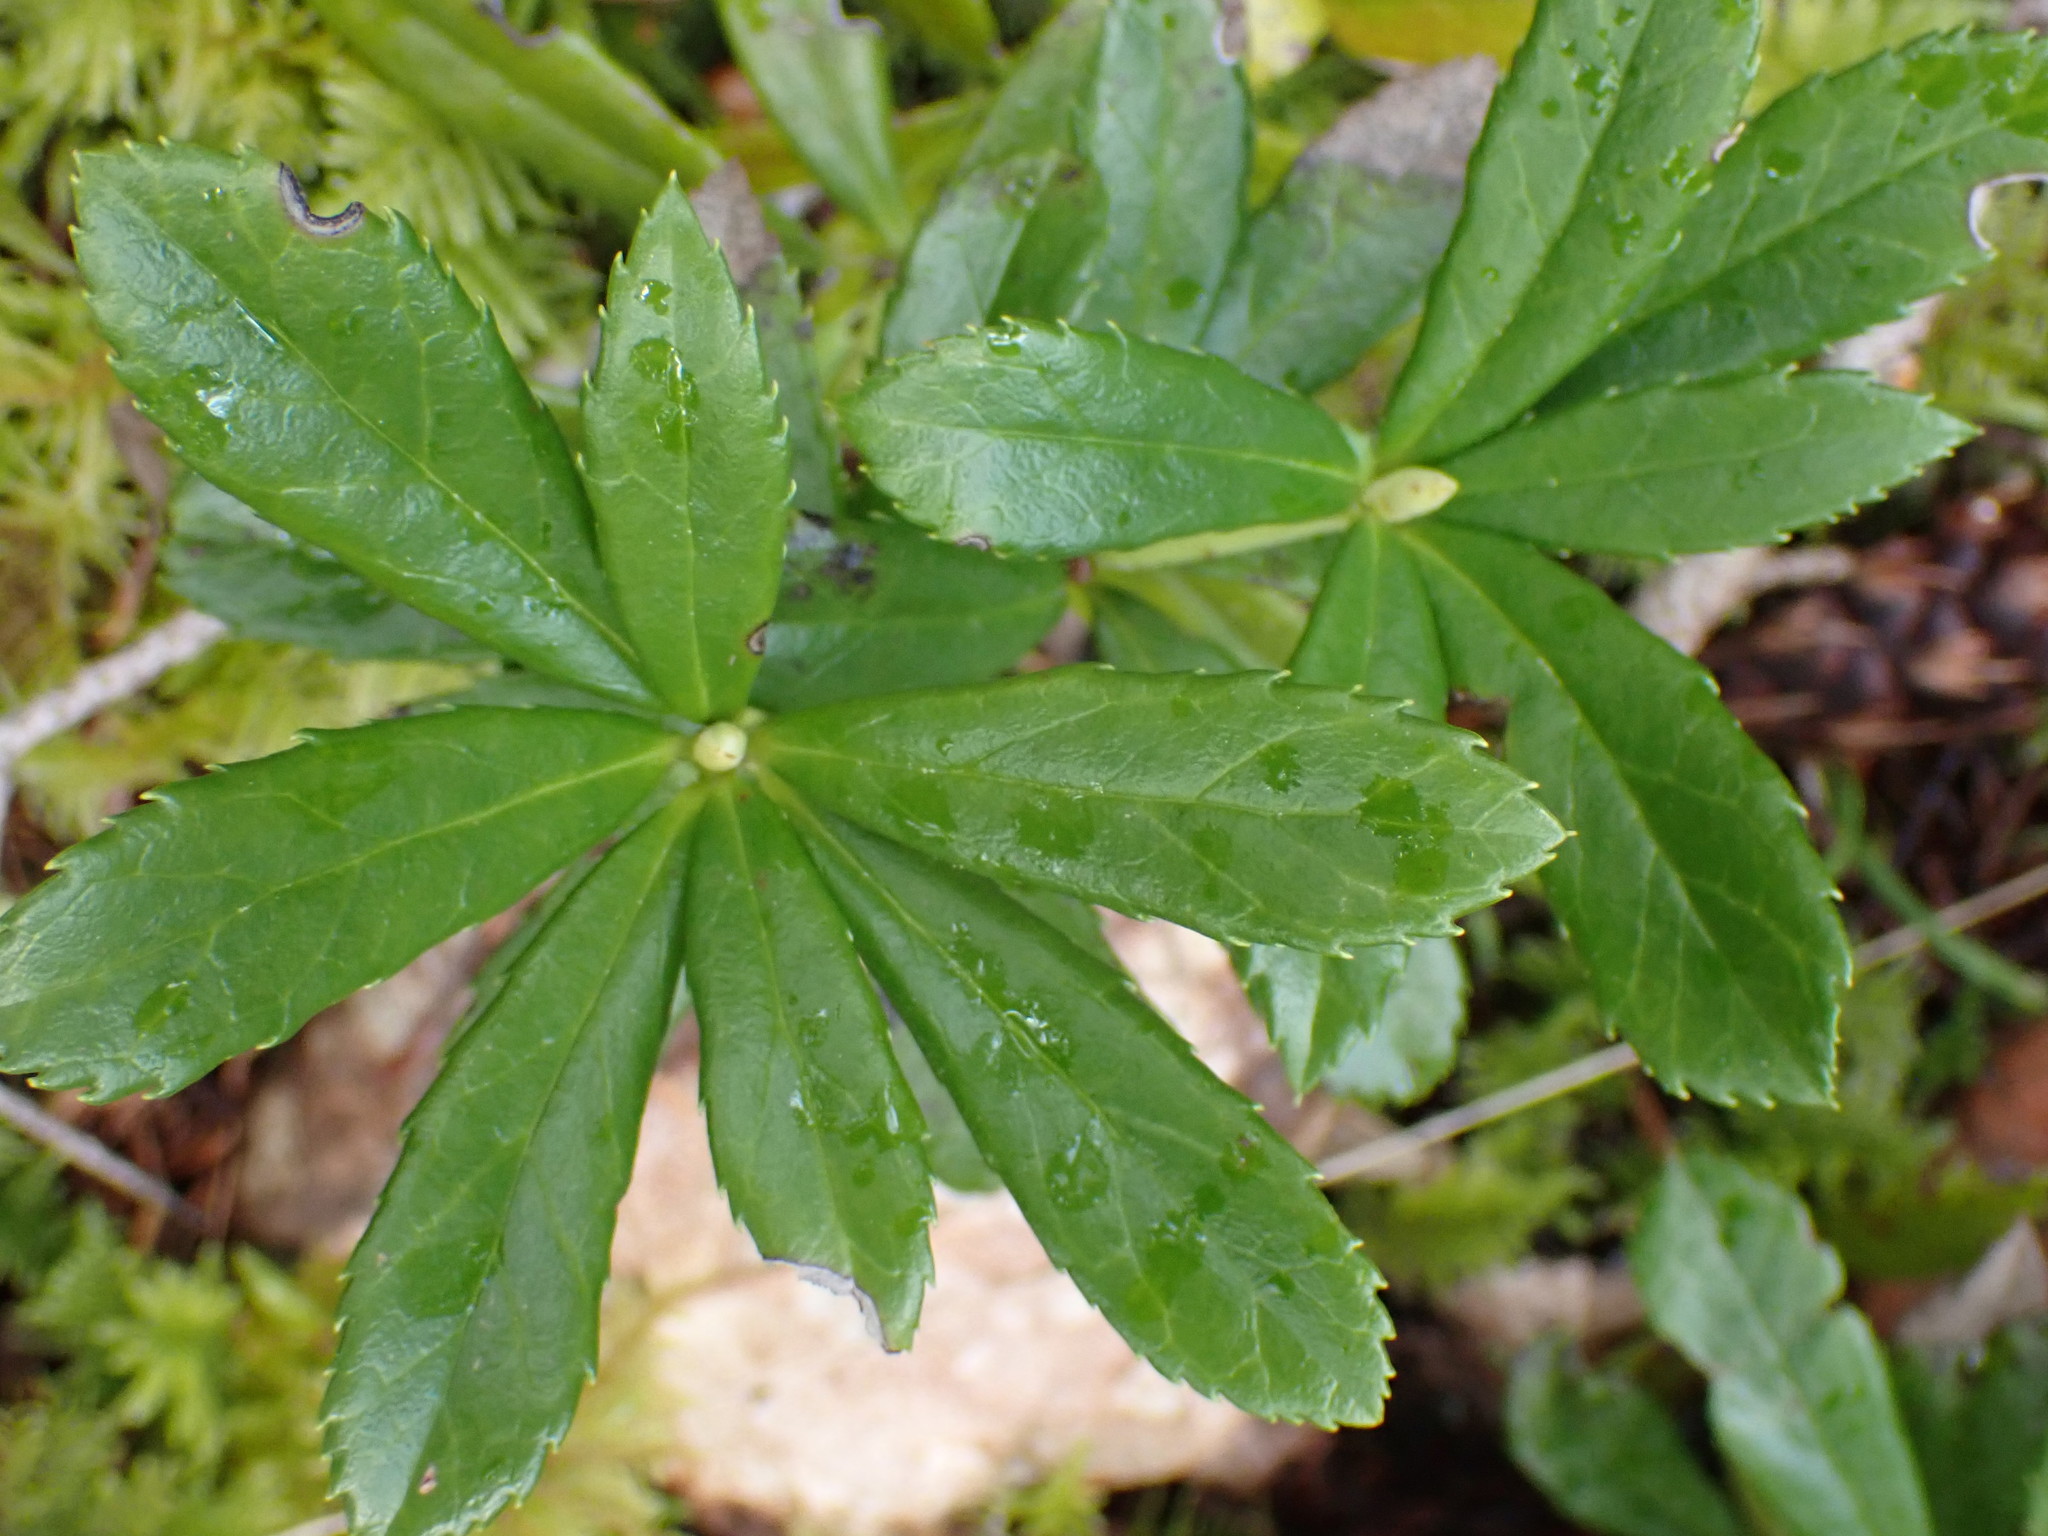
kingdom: Plantae
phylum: Tracheophyta
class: Magnoliopsida
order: Ericales
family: Ericaceae
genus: Chimaphila
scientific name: Chimaphila umbellata
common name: Pipsissewa
